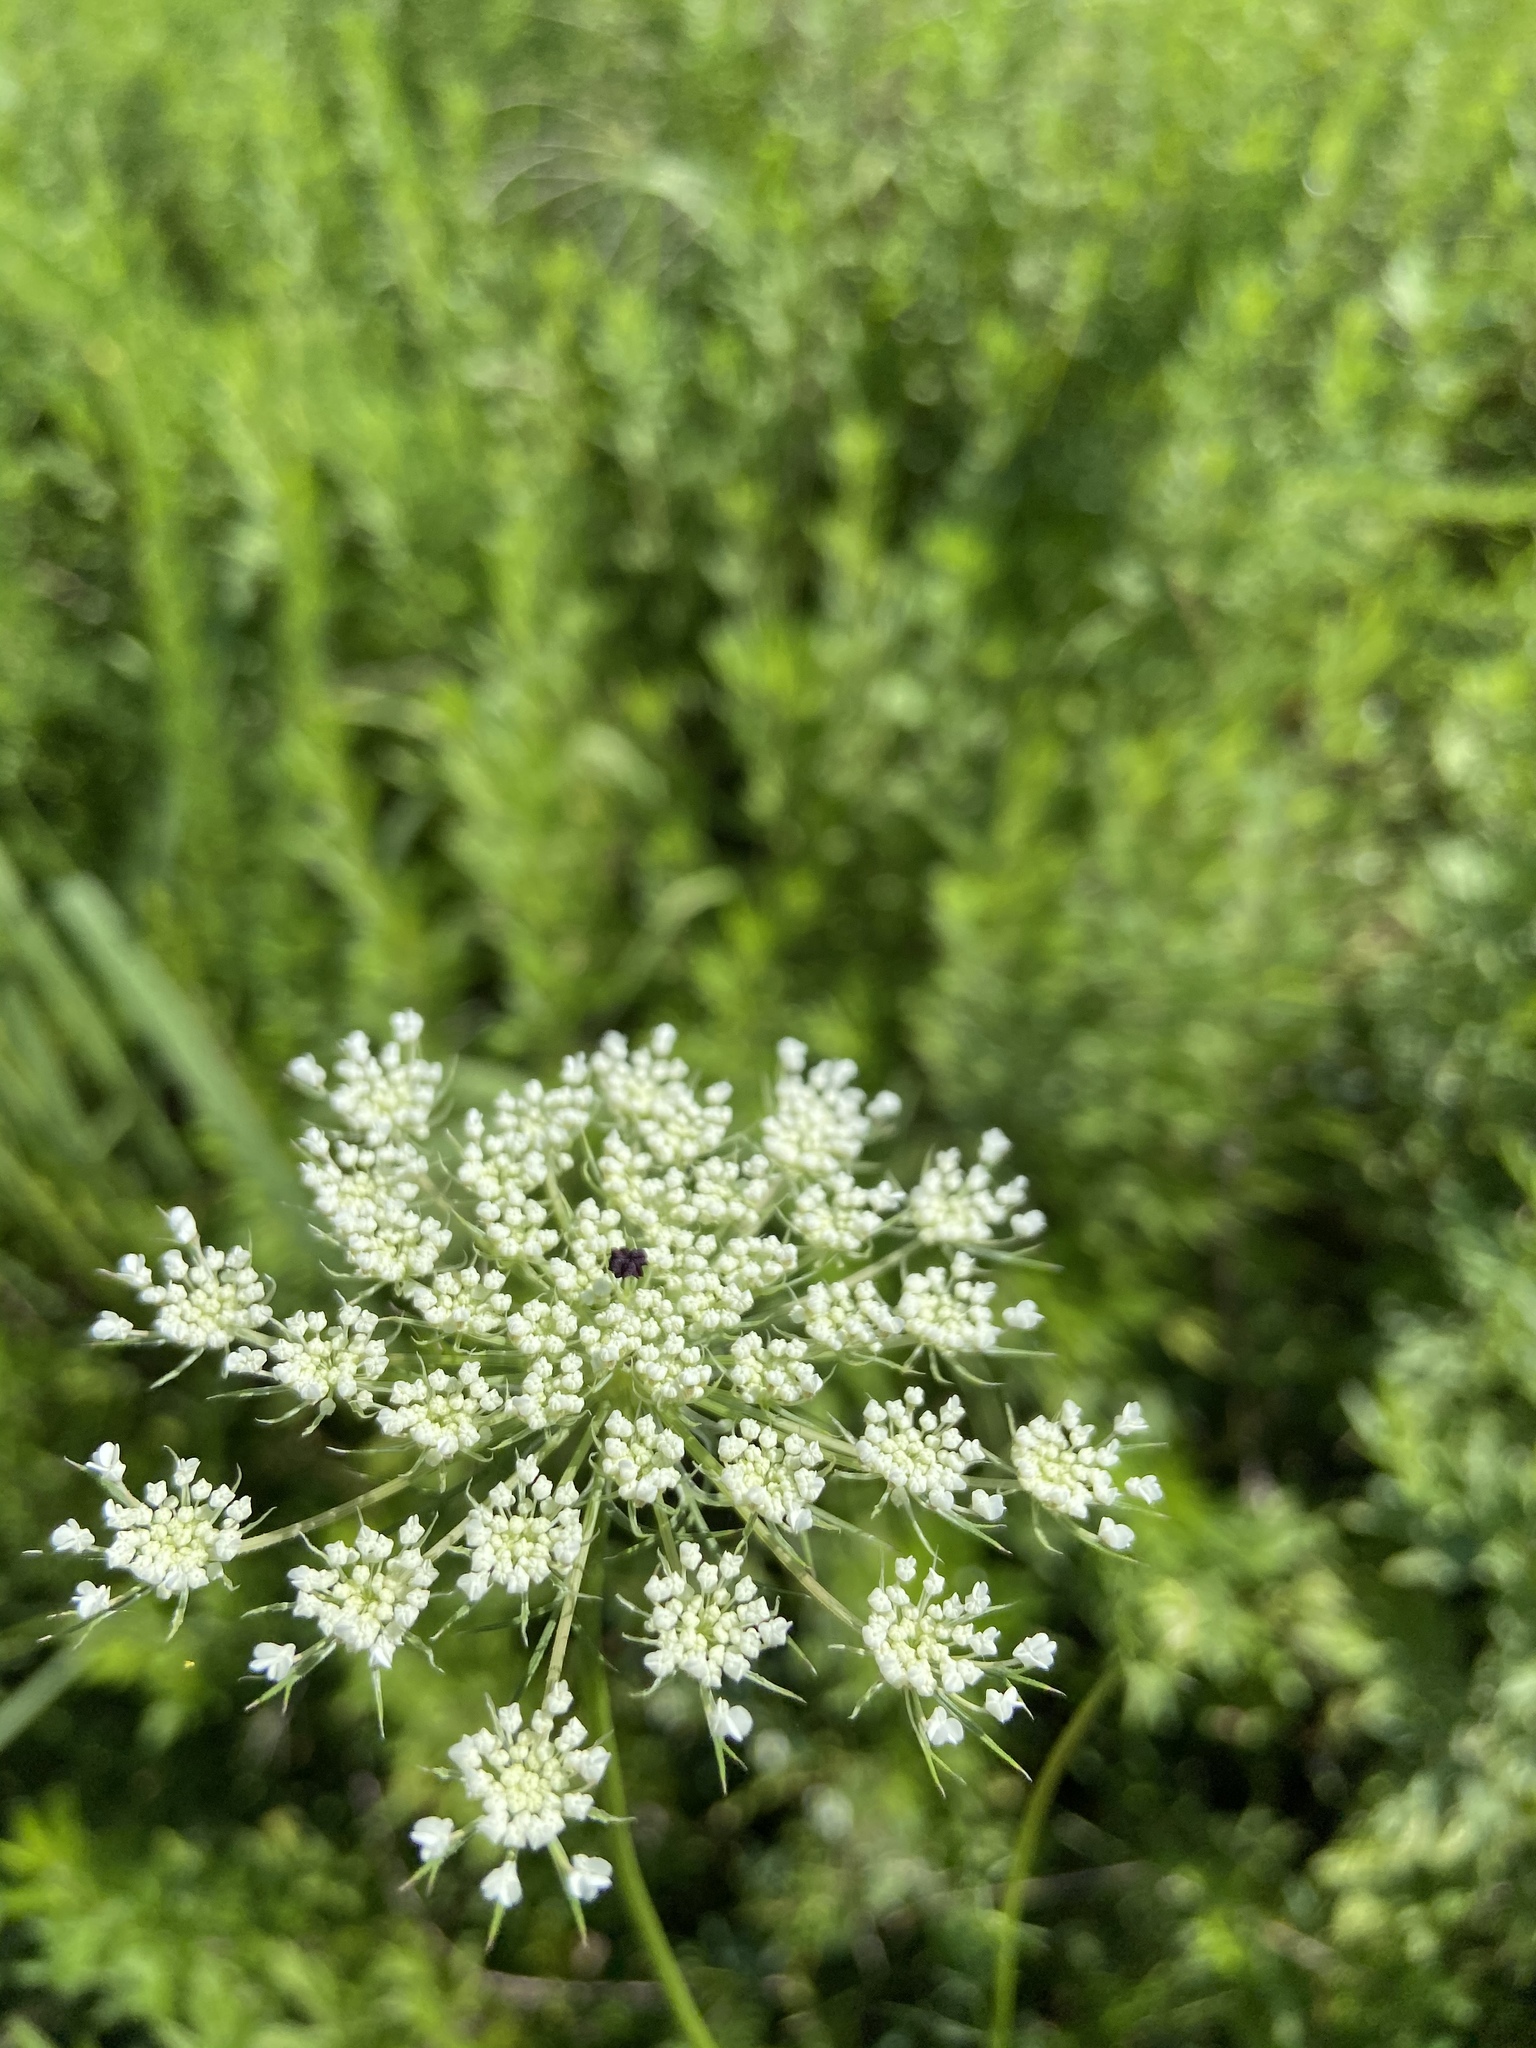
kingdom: Plantae
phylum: Tracheophyta
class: Magnoliopsida
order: Apiales
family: Apiaceae
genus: Daucus
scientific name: Daucus carota
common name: Wild carrot
